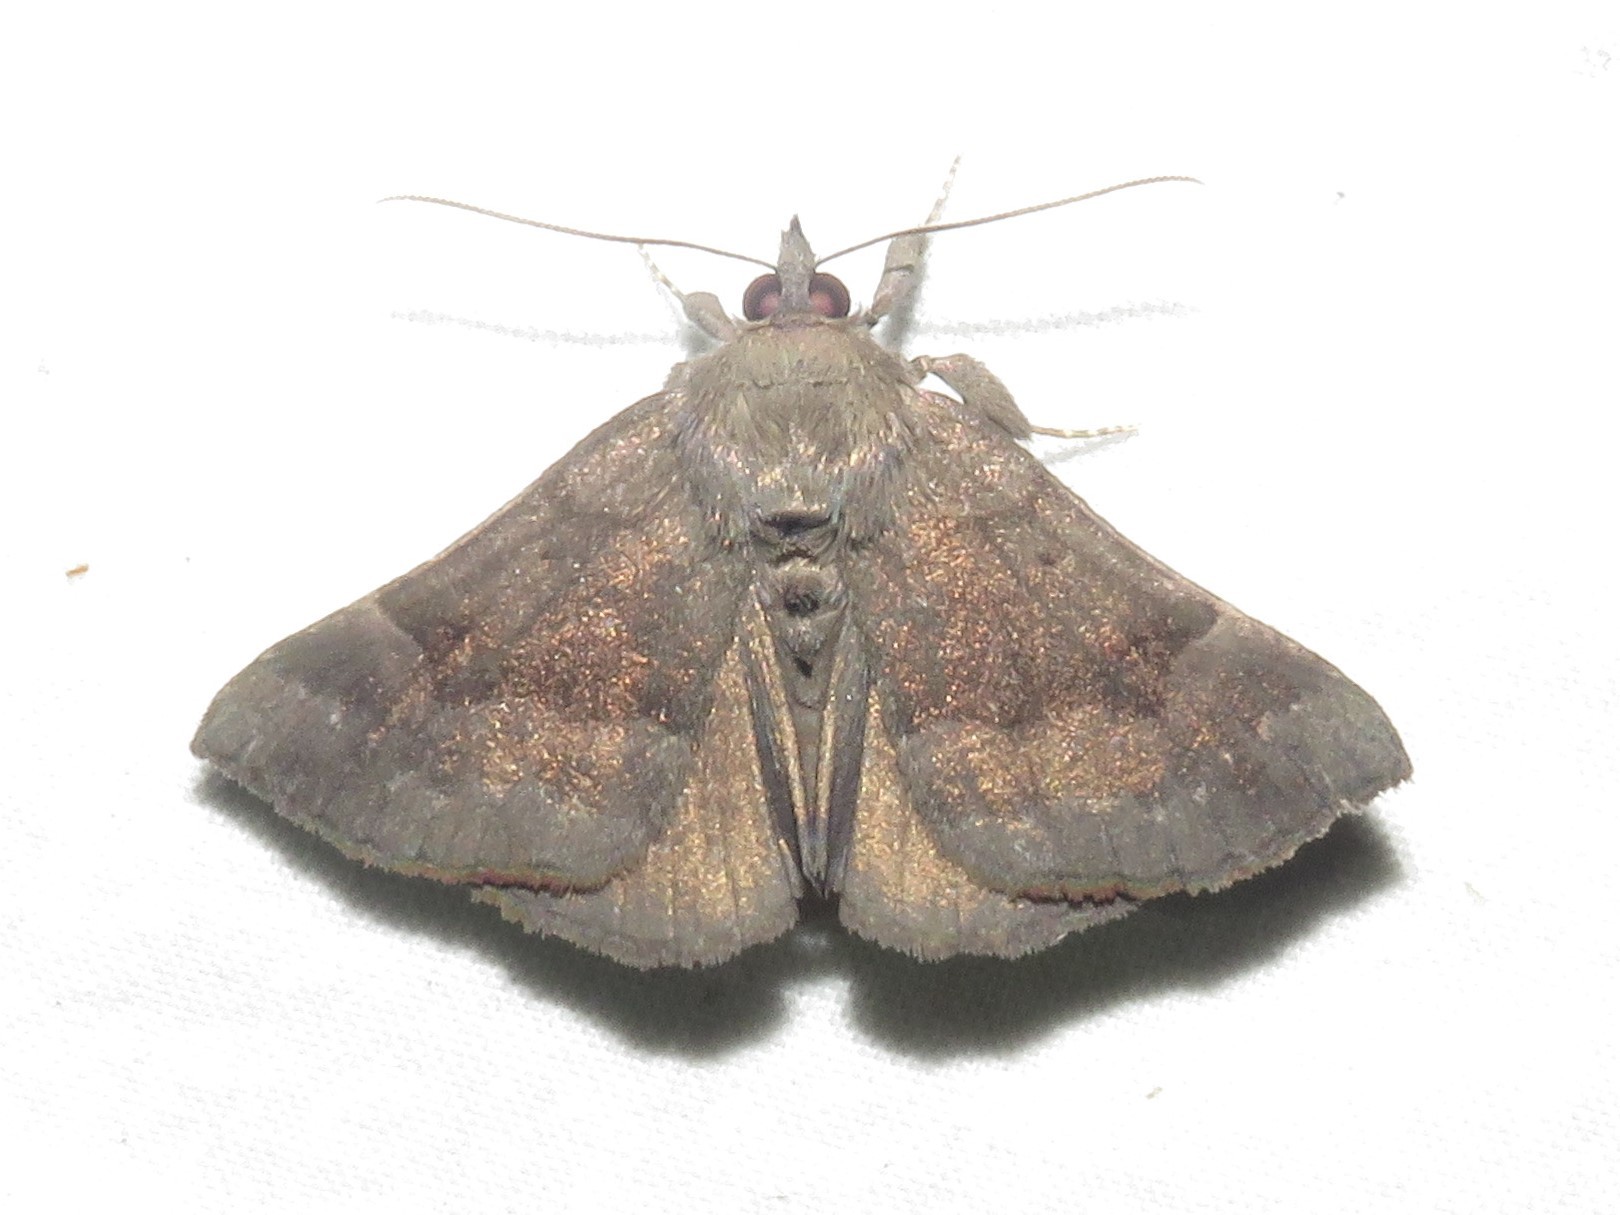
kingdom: Animalia
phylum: Arthropoda
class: Insecta
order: Lepidoptera
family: Erebidae
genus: Hypena
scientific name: Hypena madefactalis
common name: Gray-edged snout
